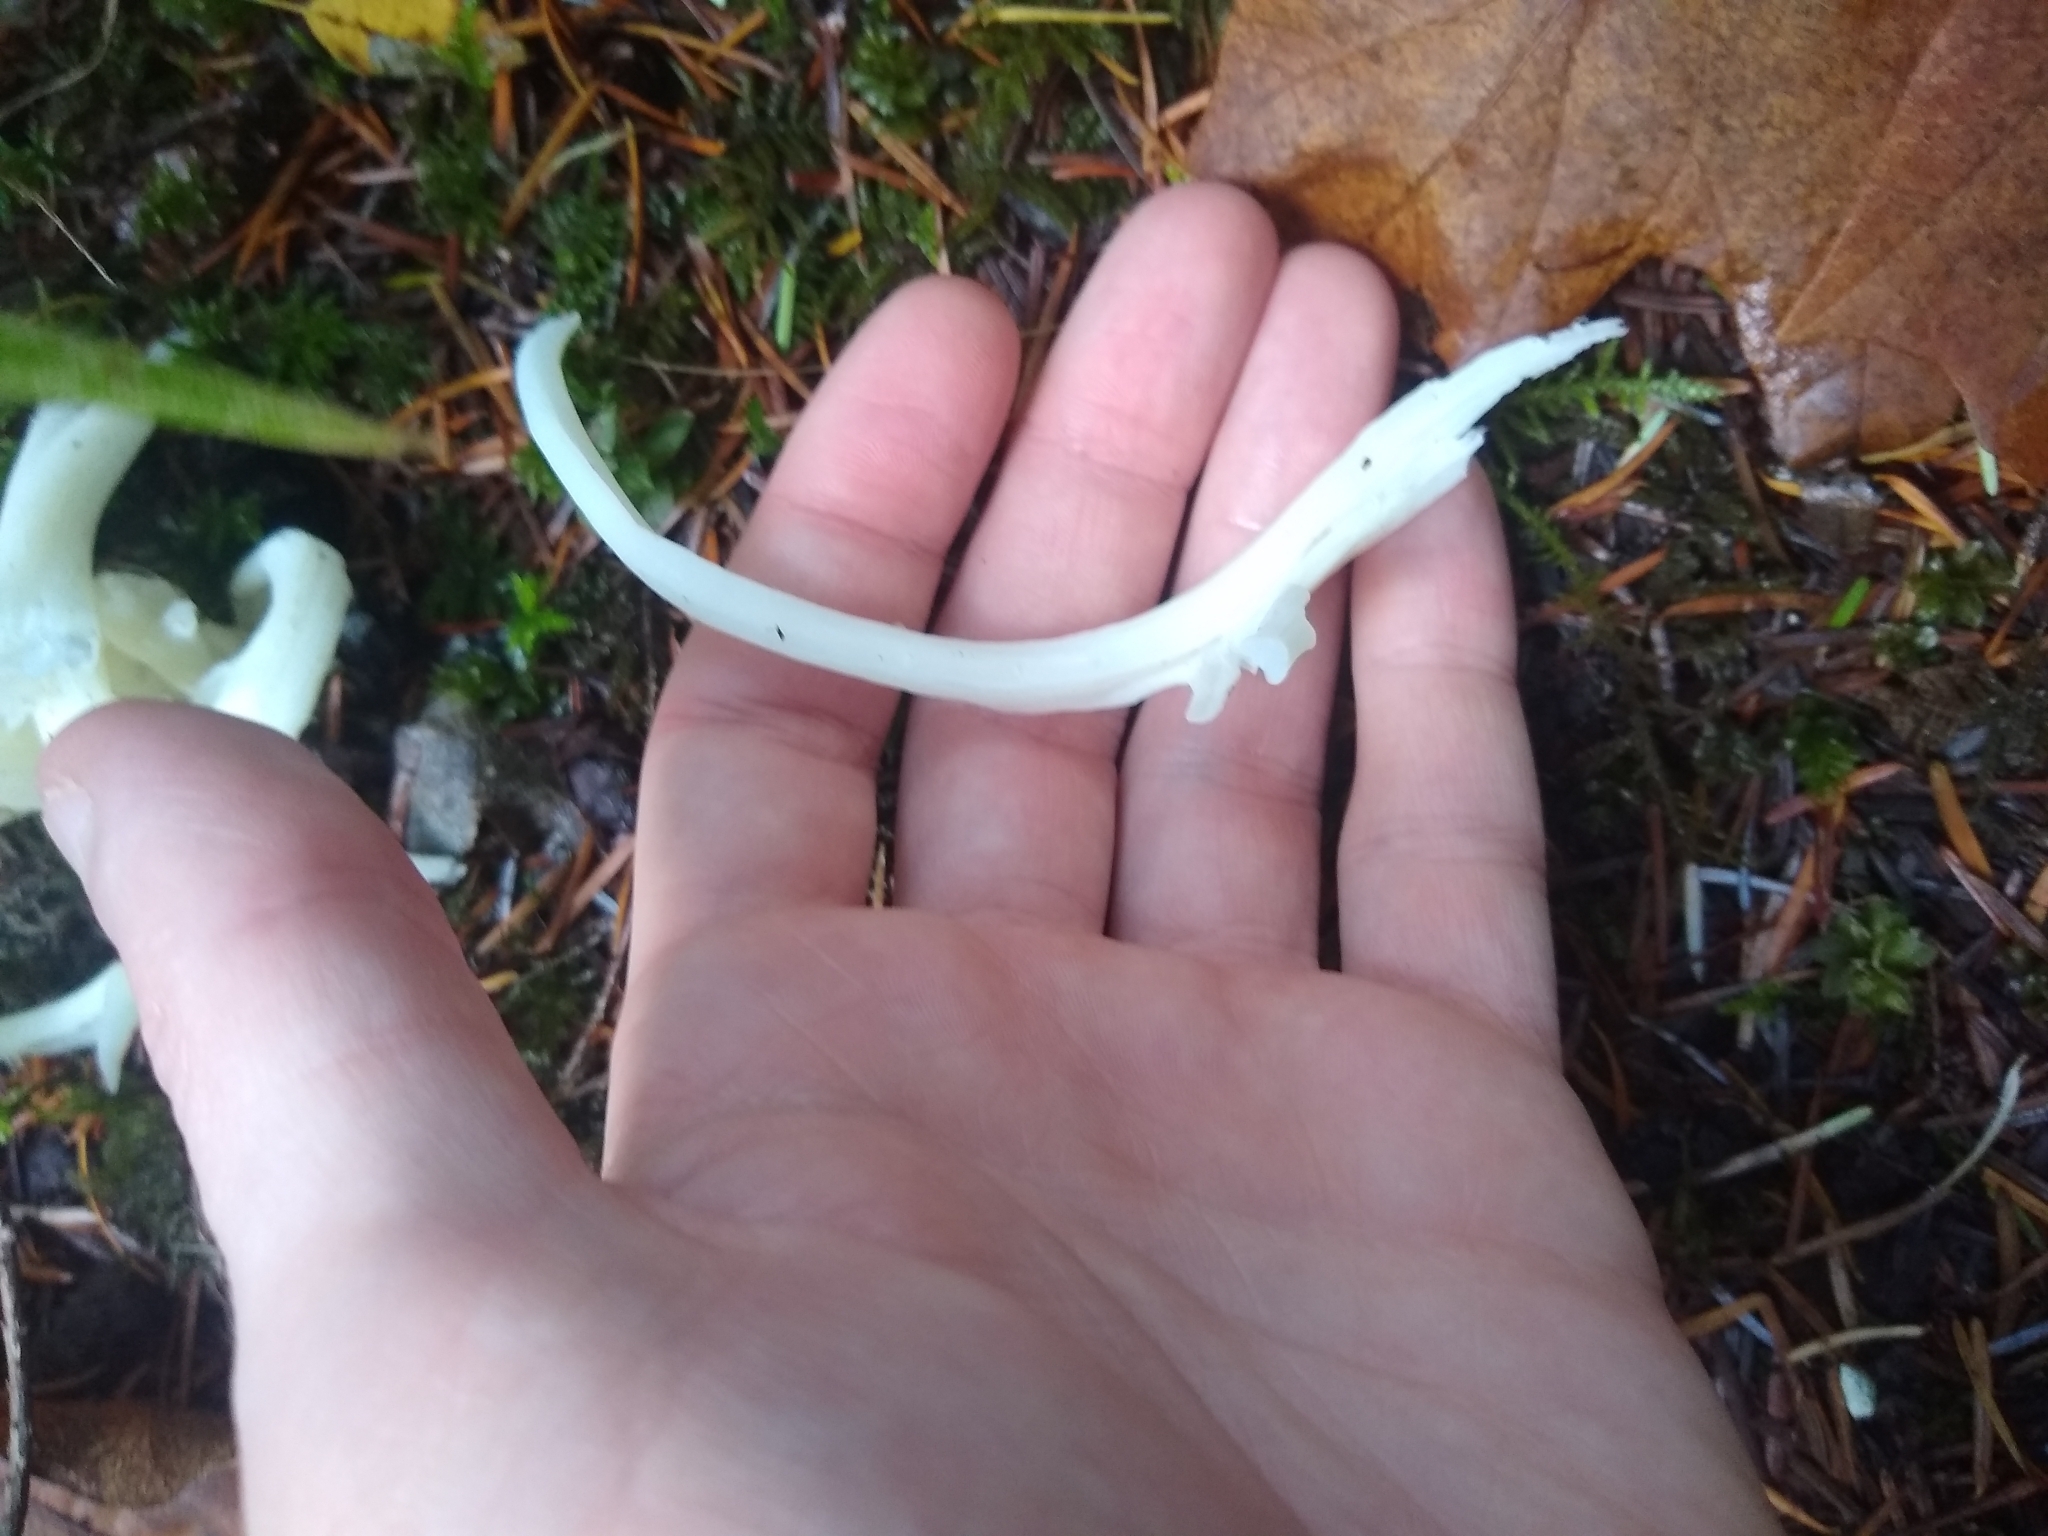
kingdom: Fungi
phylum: Basidiomycota
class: Agaricomycetes
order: Agaricales
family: Clavariaceae
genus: Clavaria
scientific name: Clavaria fragilis
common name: White spindles
